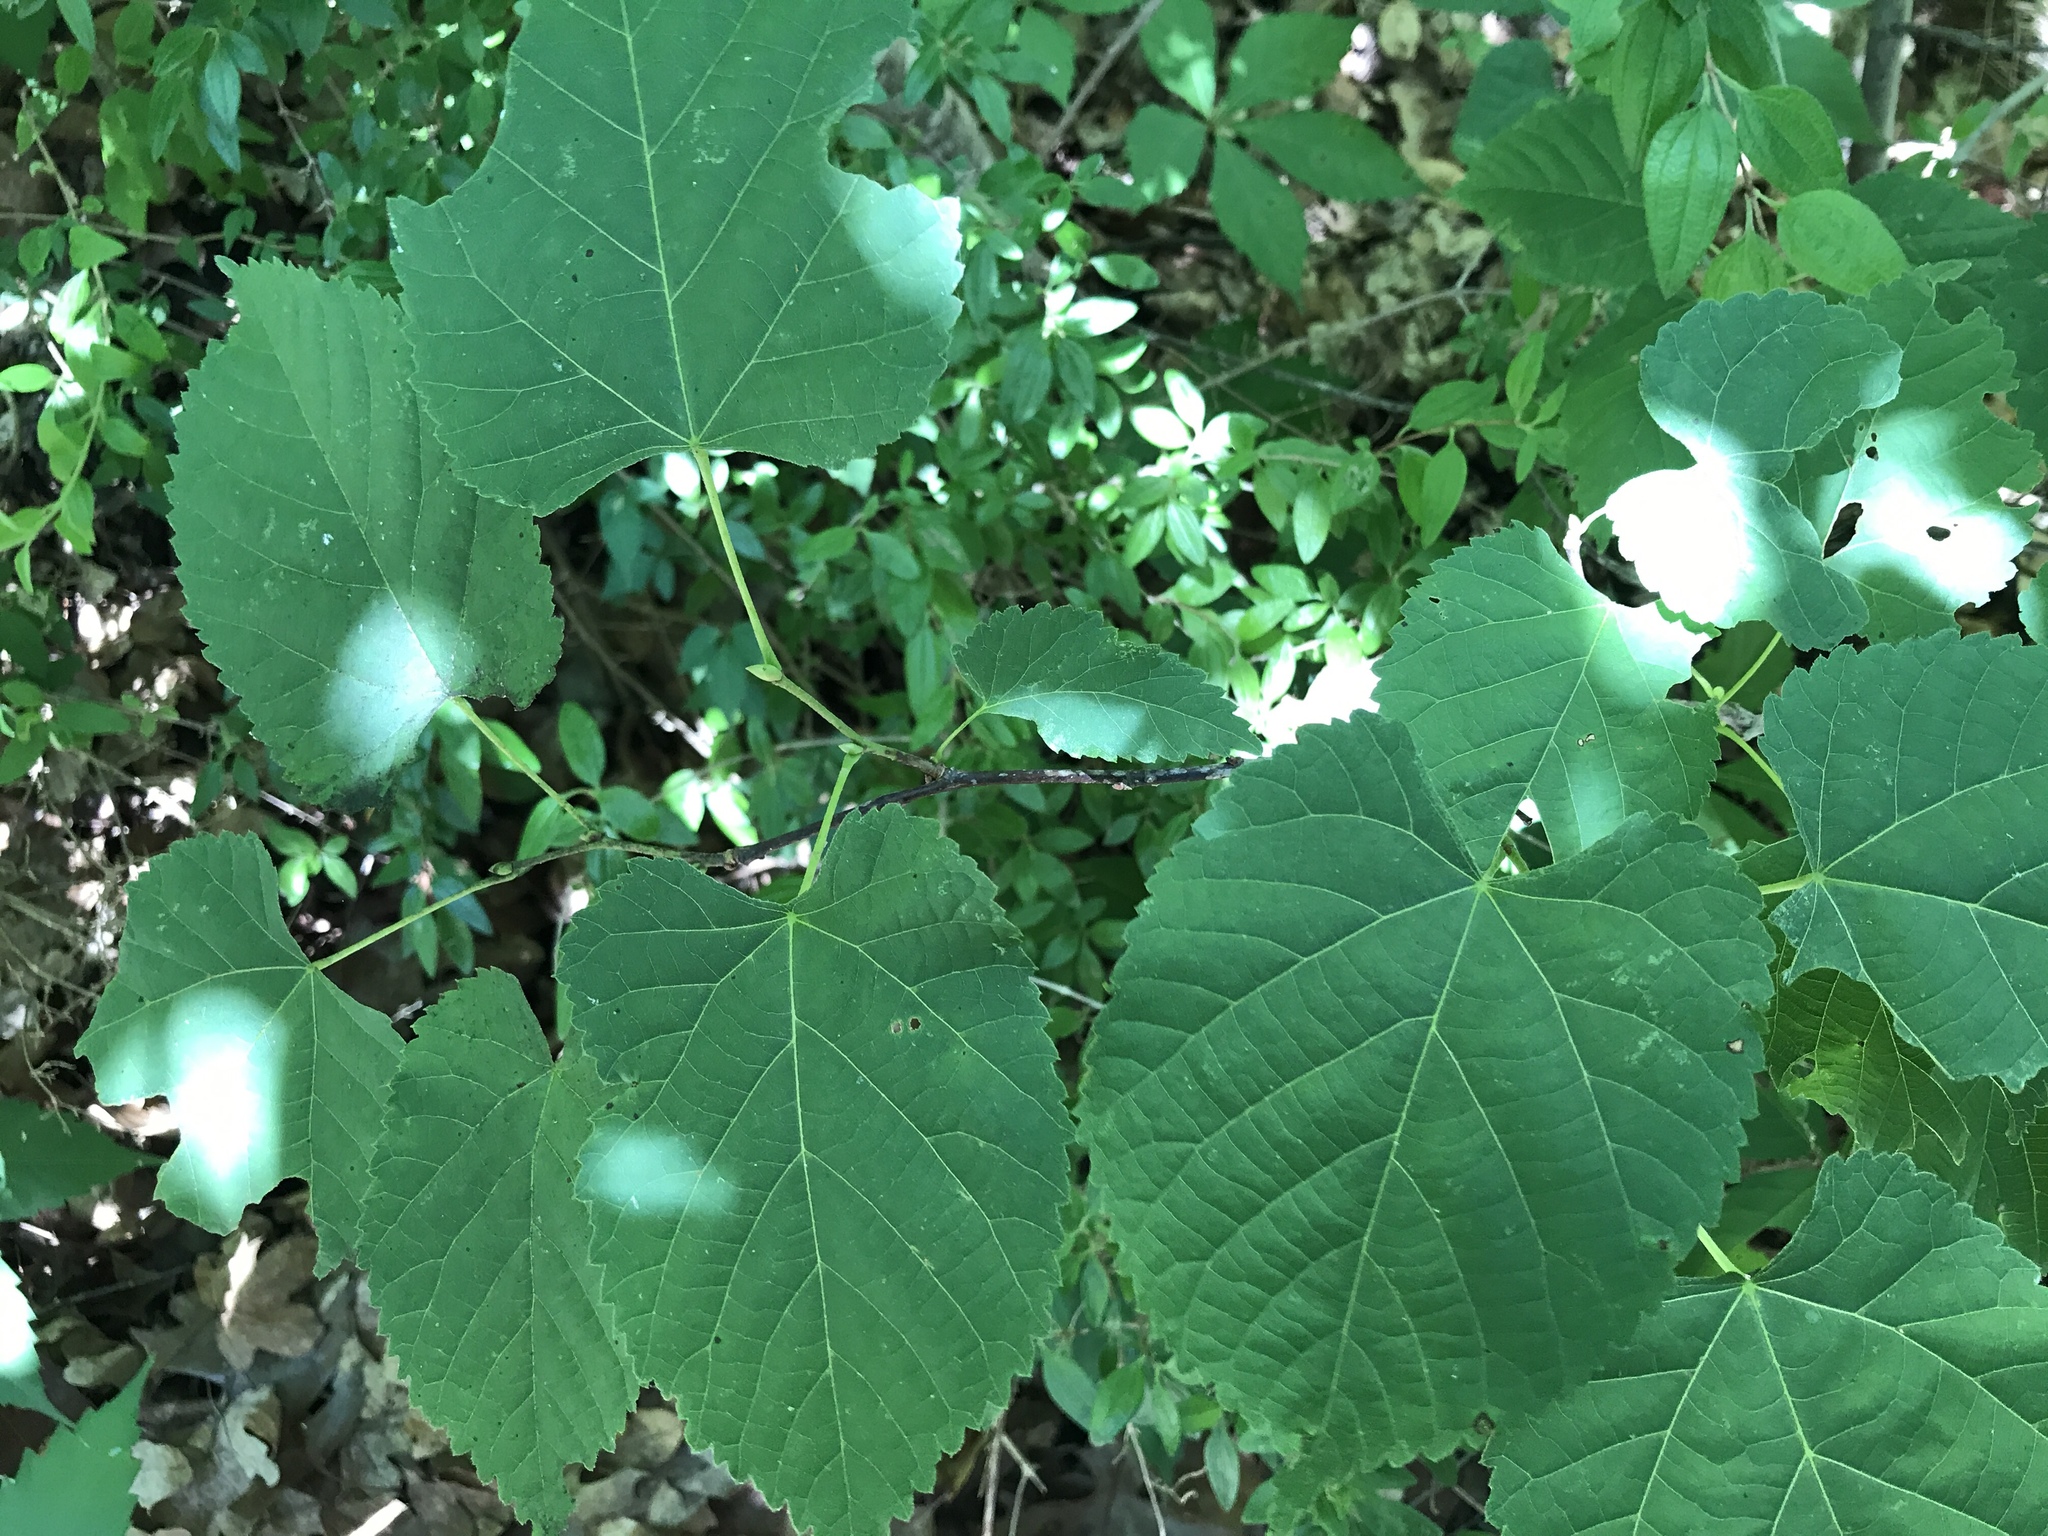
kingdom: Plantae
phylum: Tracheophyta
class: Magnoliopsida
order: Malvales
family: Malvaceae
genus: Tilia
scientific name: Tilia americana
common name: Basswood
